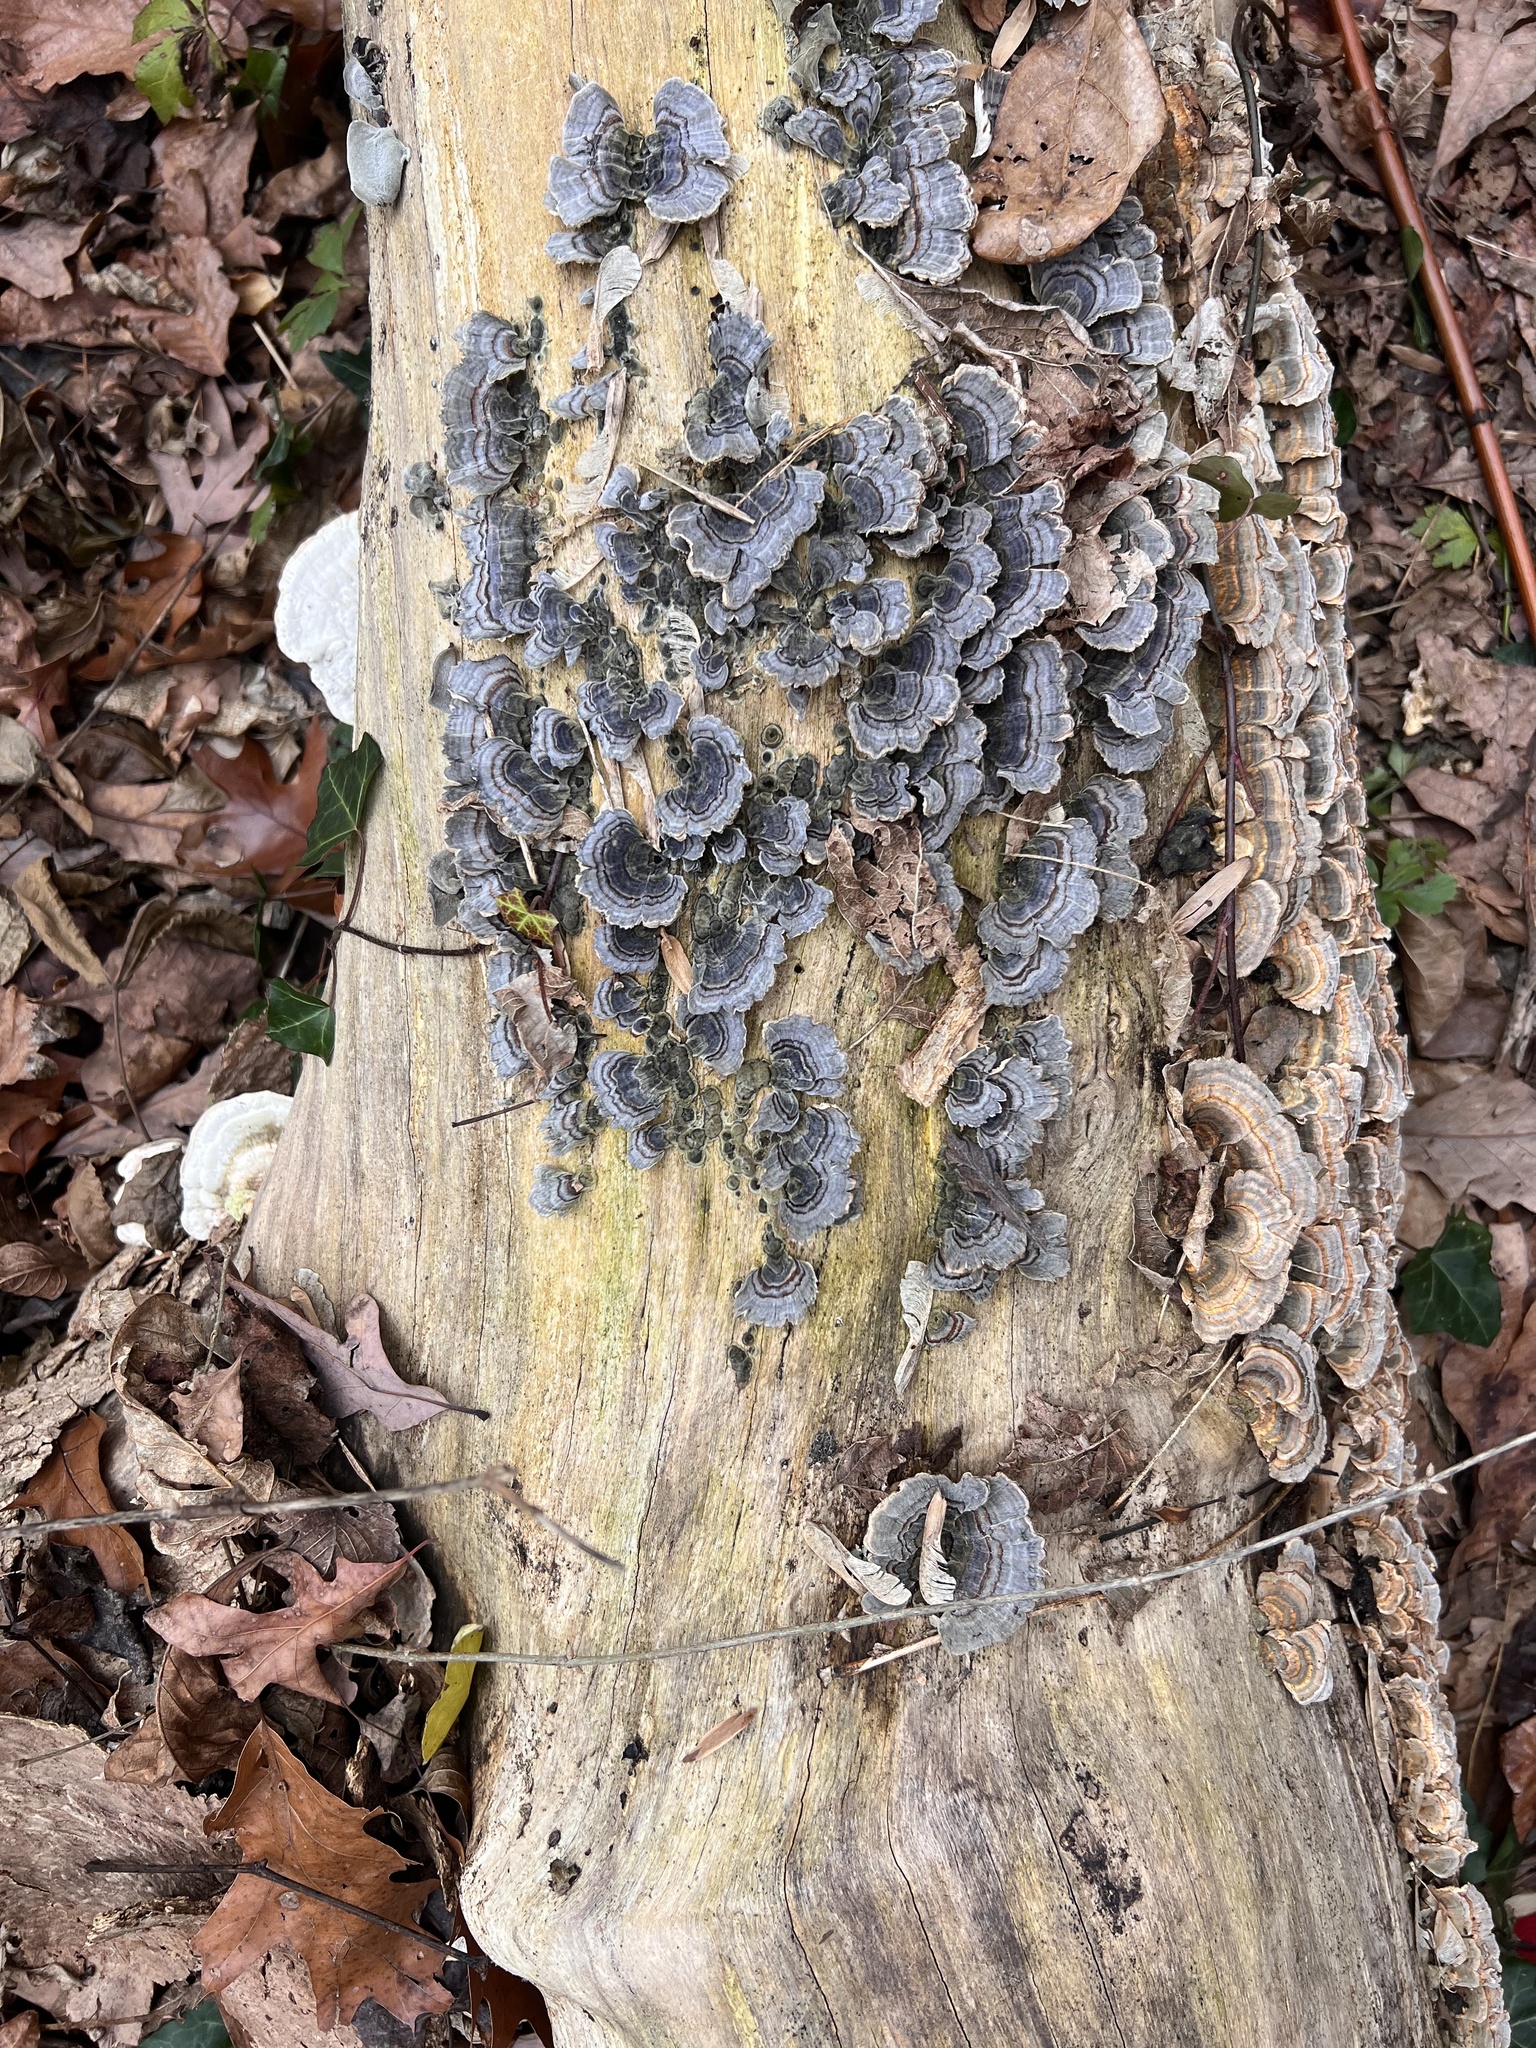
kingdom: Fungi
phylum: Basidiomycota
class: Agaricomycetes
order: Polyporales
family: Polyporaceae
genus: Trametes
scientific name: Trametes versicolor
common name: Turkeytail
